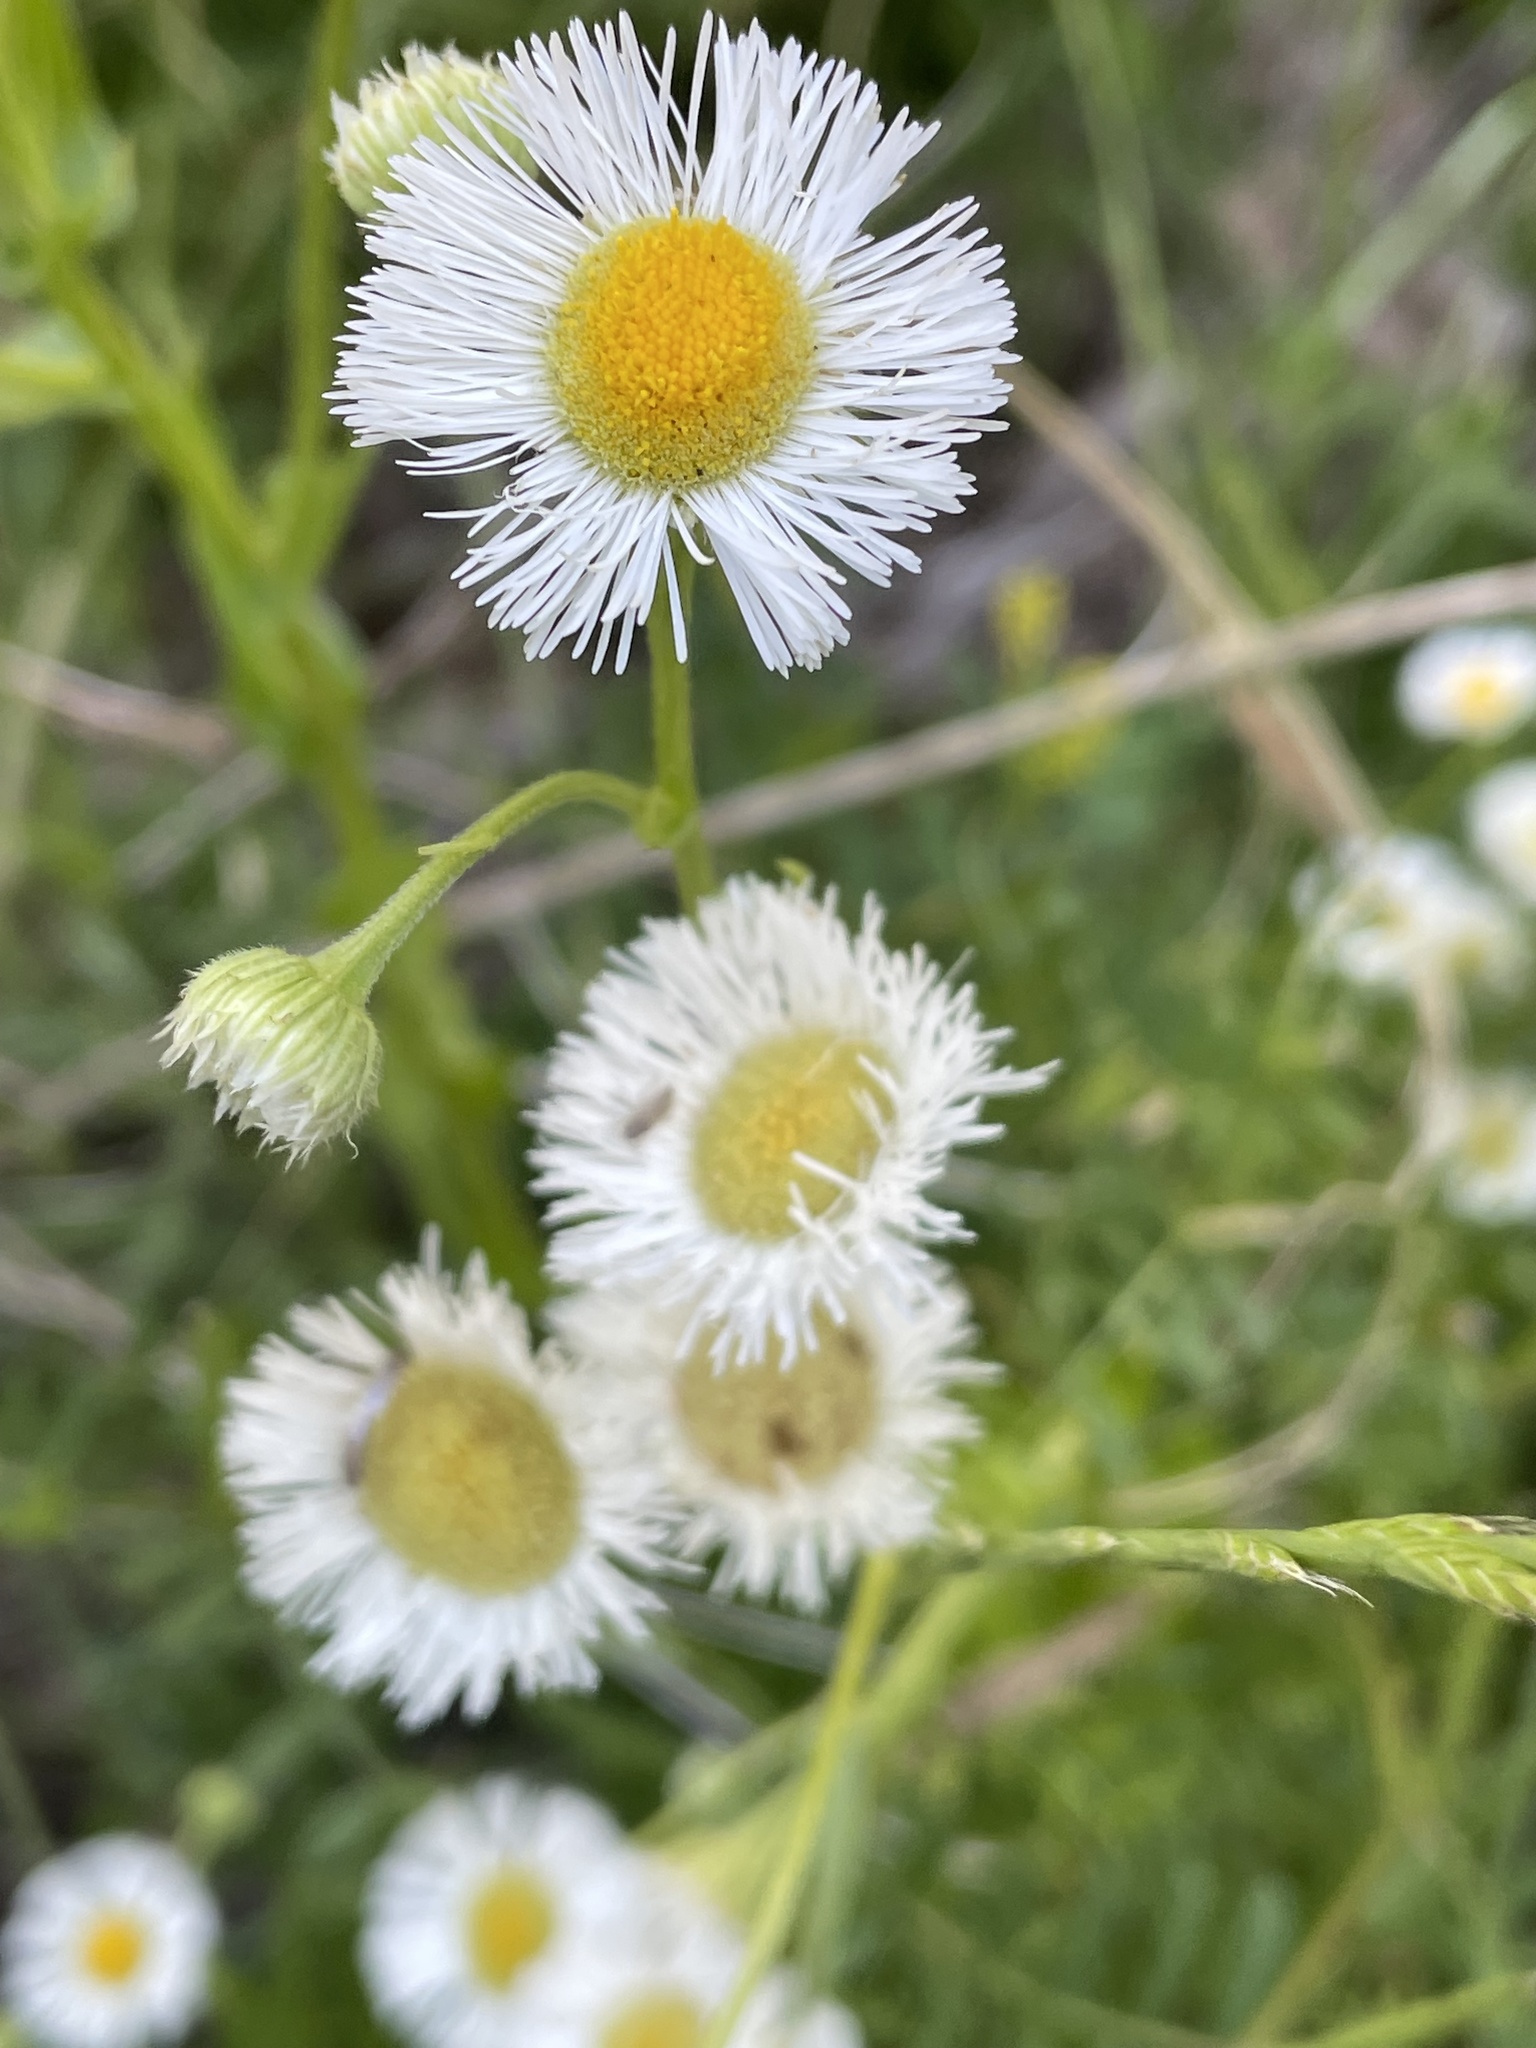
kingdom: Plantae
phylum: Tracheophyta
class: Magnoliopsida
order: Asterales
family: Asteraceae
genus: Erigeron
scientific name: Erigeron philadelphicus
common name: Robin's-plantain
